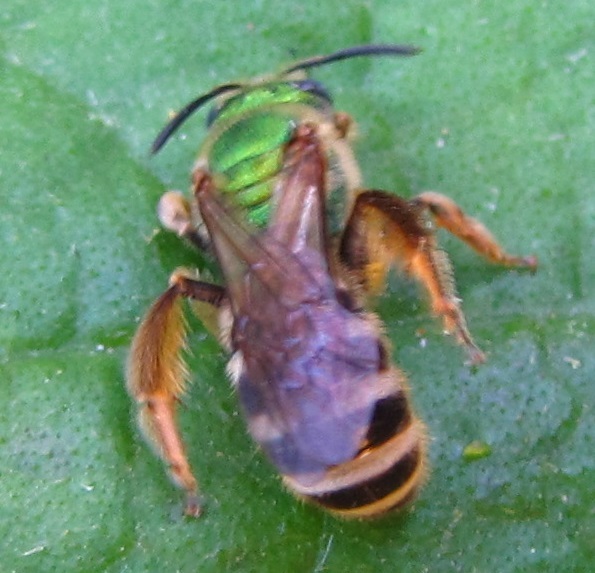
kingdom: Animalia
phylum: Arthropoda
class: Insecta
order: Hymenoptera
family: Halictidae
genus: Agapostemon
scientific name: Agapostemon virescens
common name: Bicolored striped sweat bee
